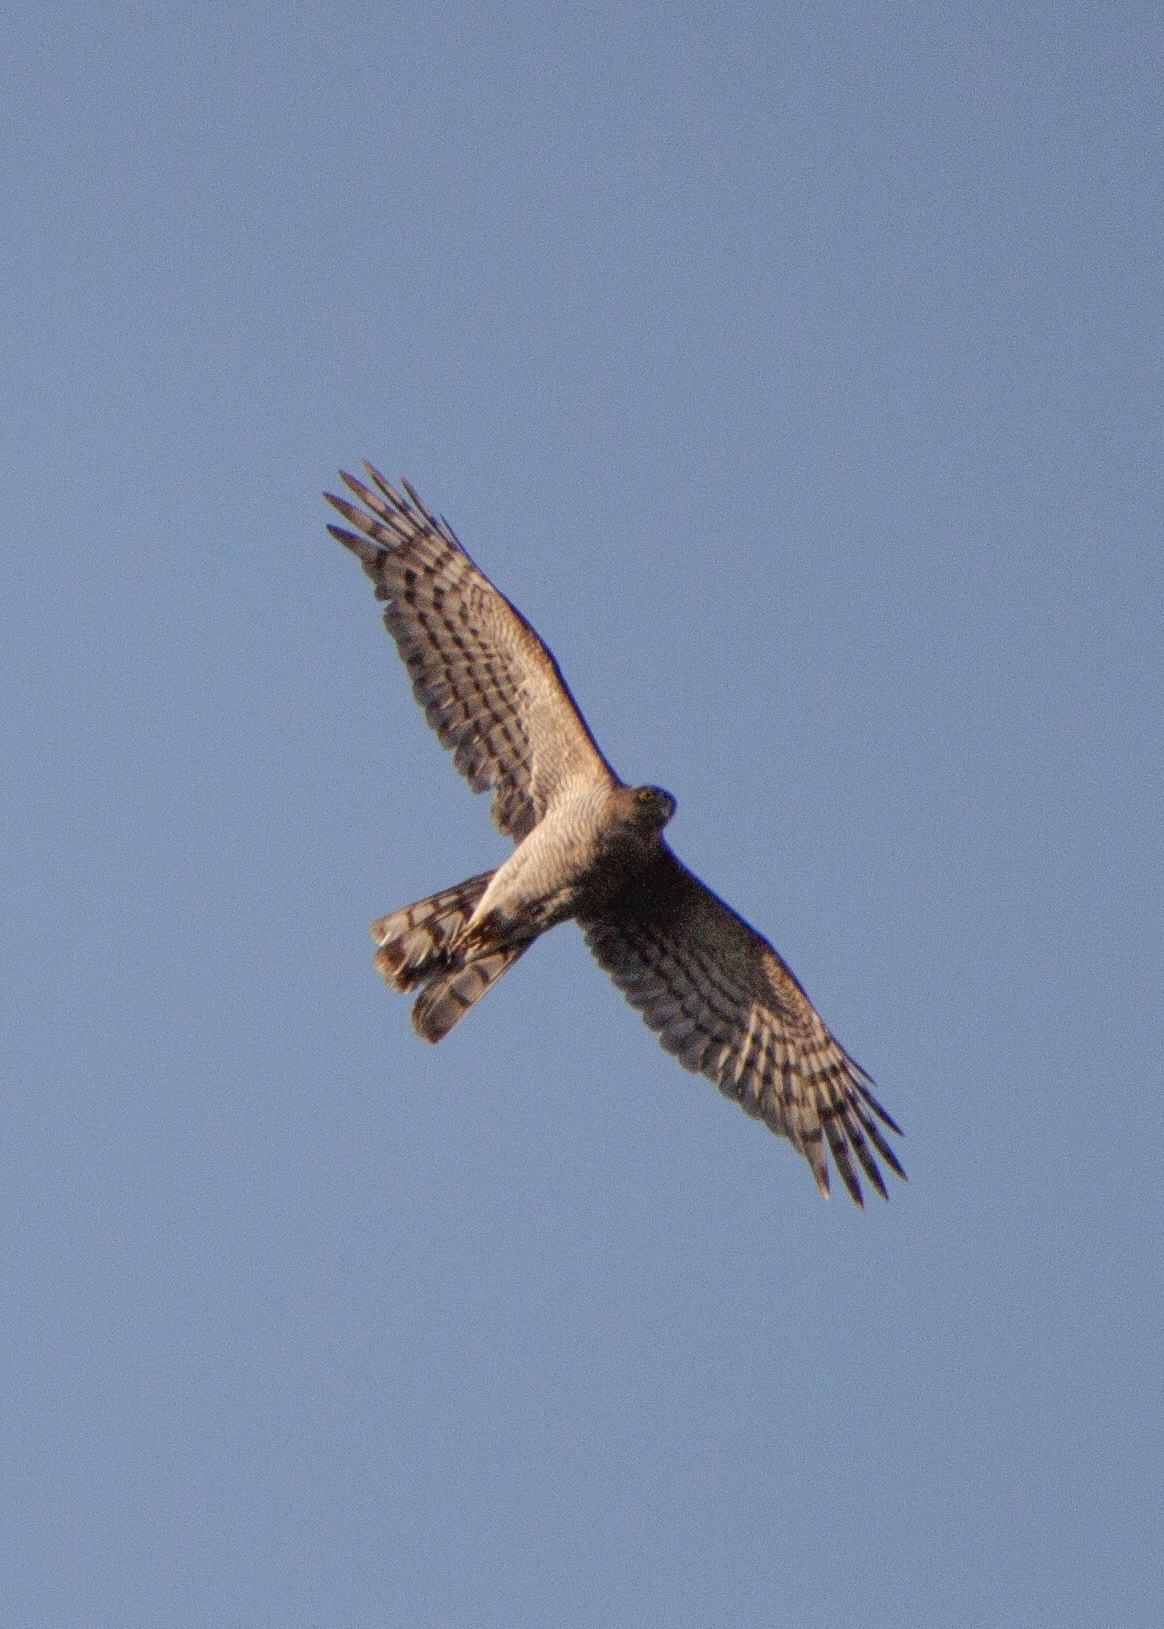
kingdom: Animalia
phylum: Chordata
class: Aves
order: Accipitriformes
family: Accipitridae
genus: Accipiter
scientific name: Accipiter nisus
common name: Eurasian sparrowhawk
